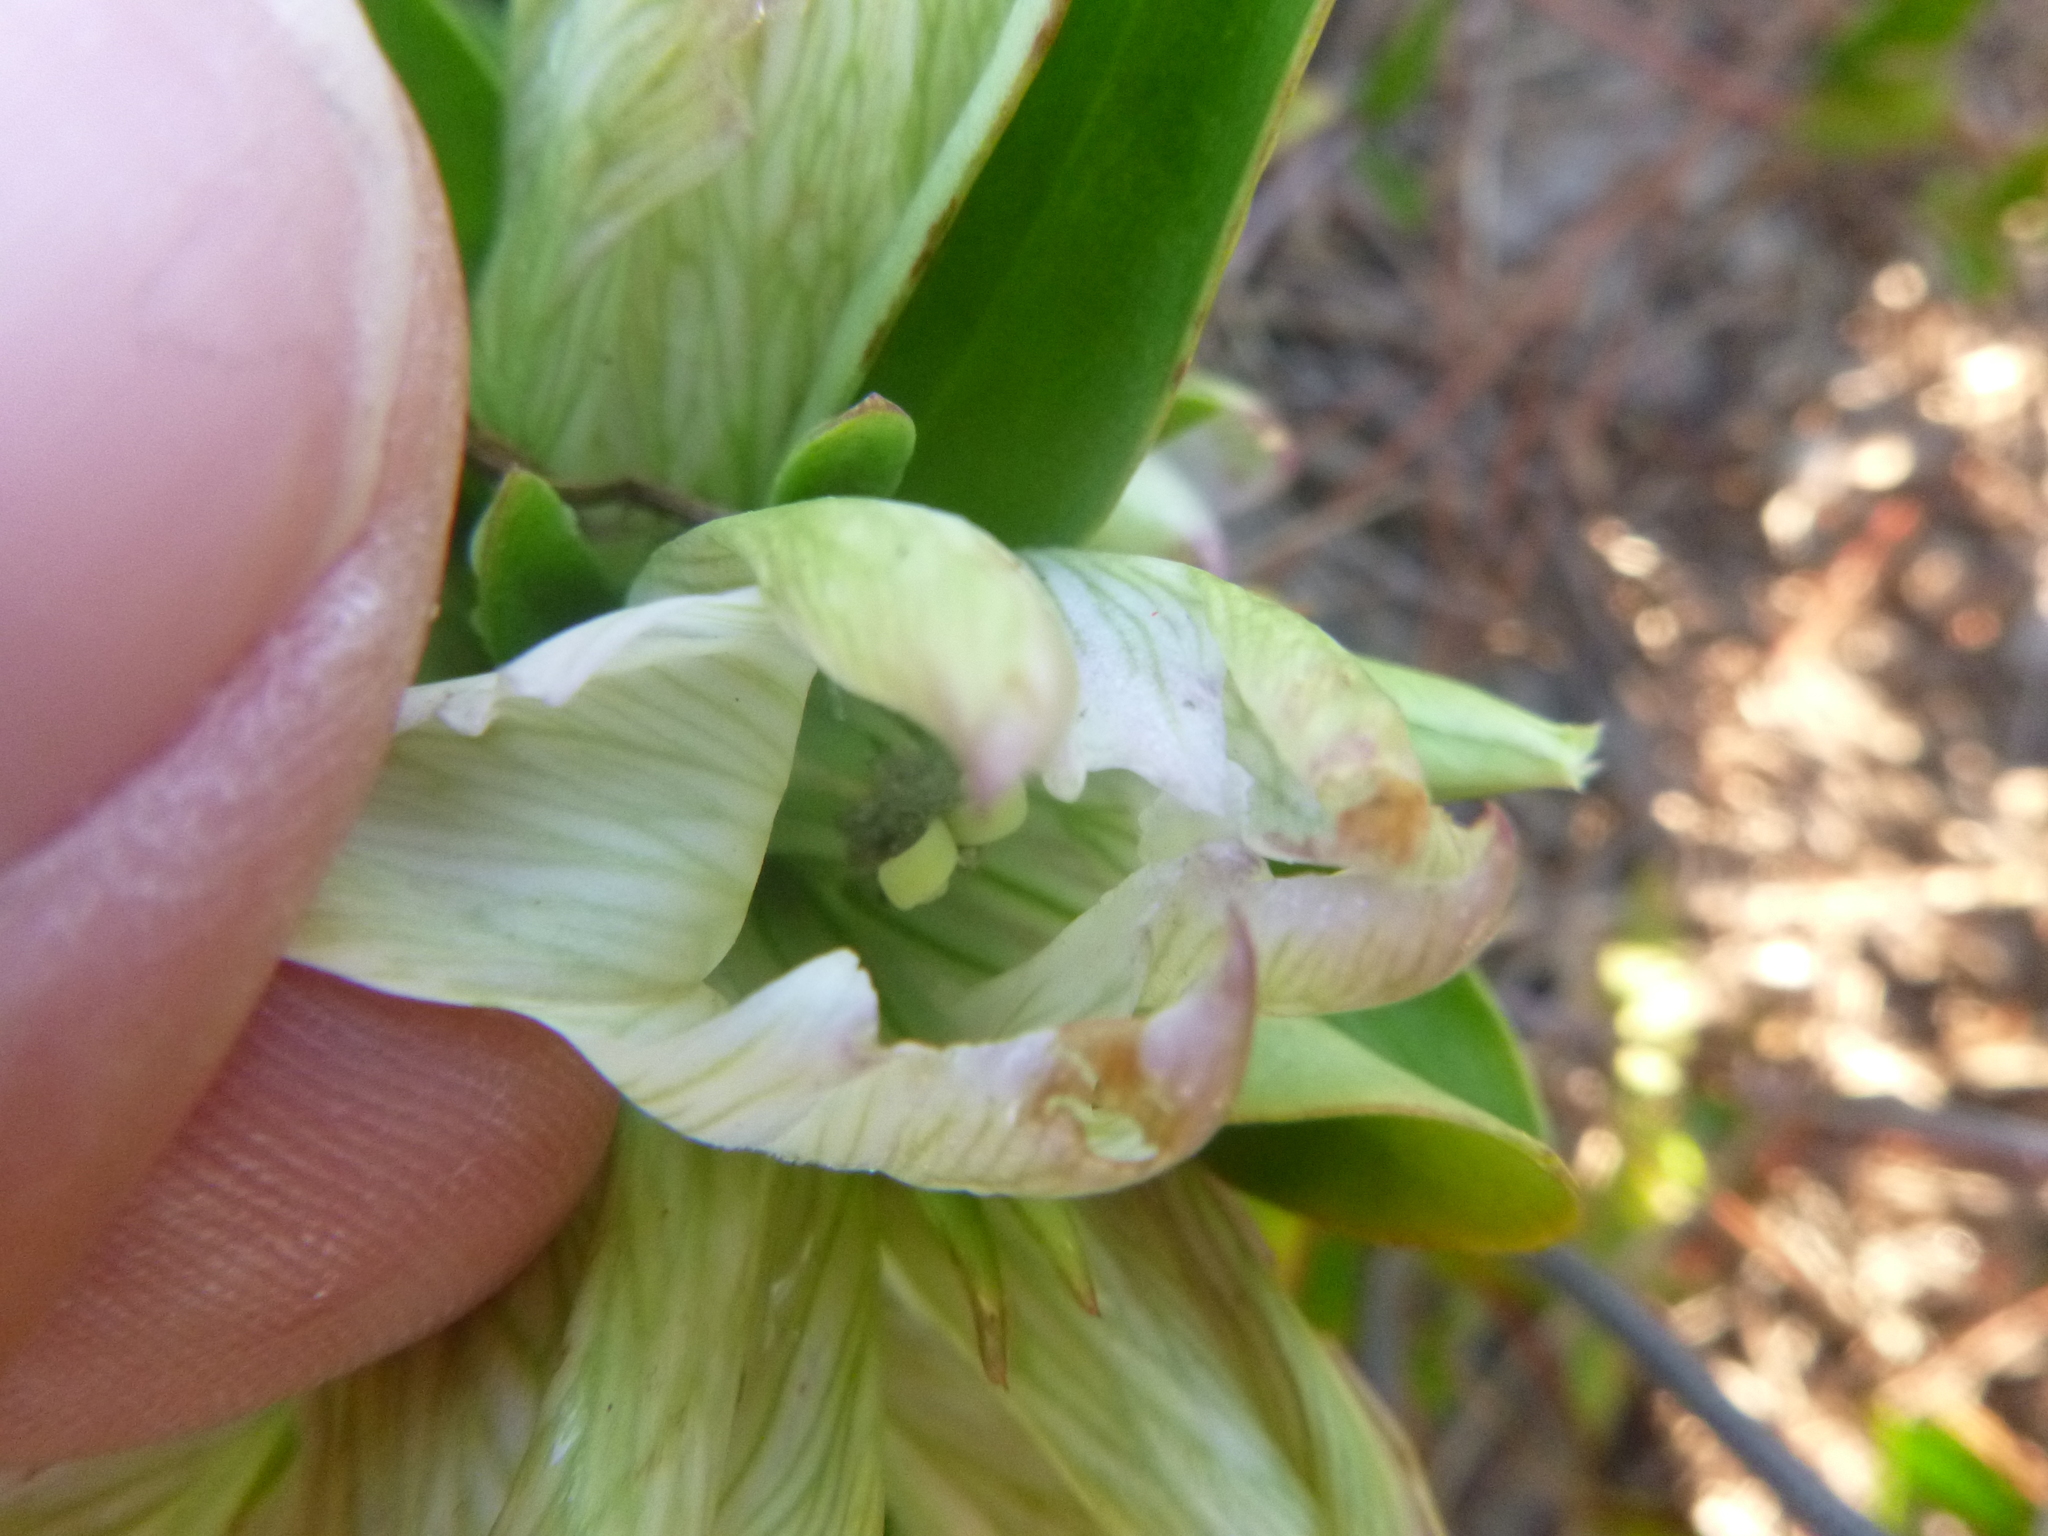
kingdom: Plantae
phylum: Tracheophyta
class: Magnoliopsida
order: Gentianales
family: Gentianaceae
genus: Gentiana
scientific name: Gentiana villosa
